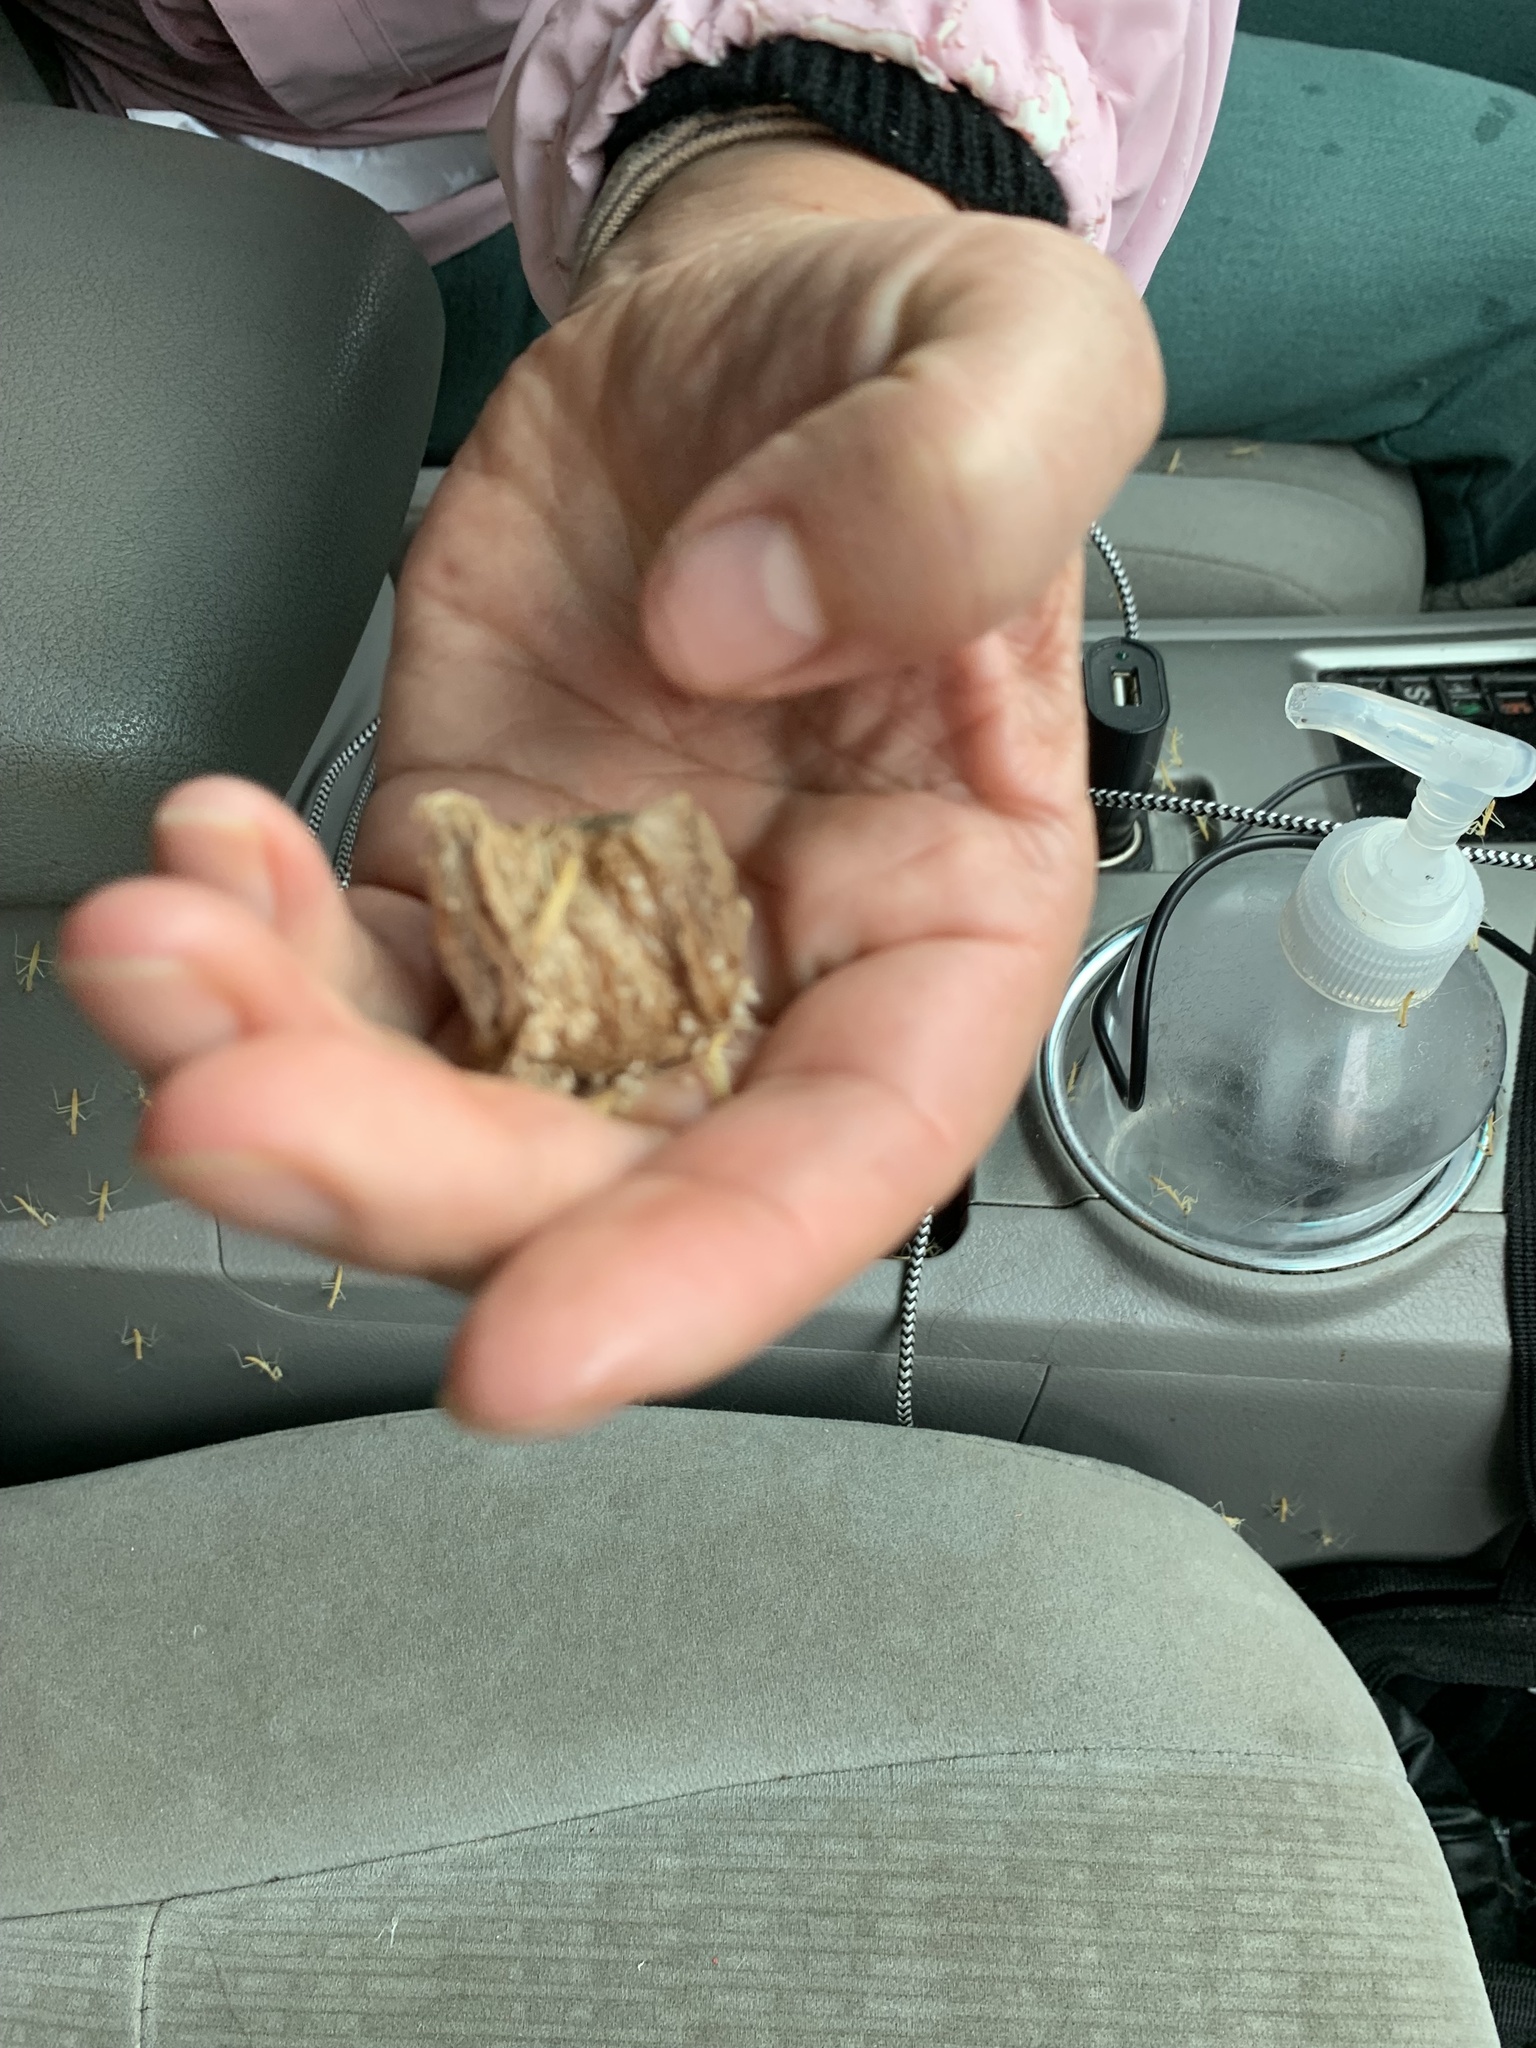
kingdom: Animalia
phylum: Arthropoda
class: Insecta
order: Mantodea
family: Mantidae
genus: Tenodera
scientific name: Tenodera sinensis
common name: Chinese mantis
